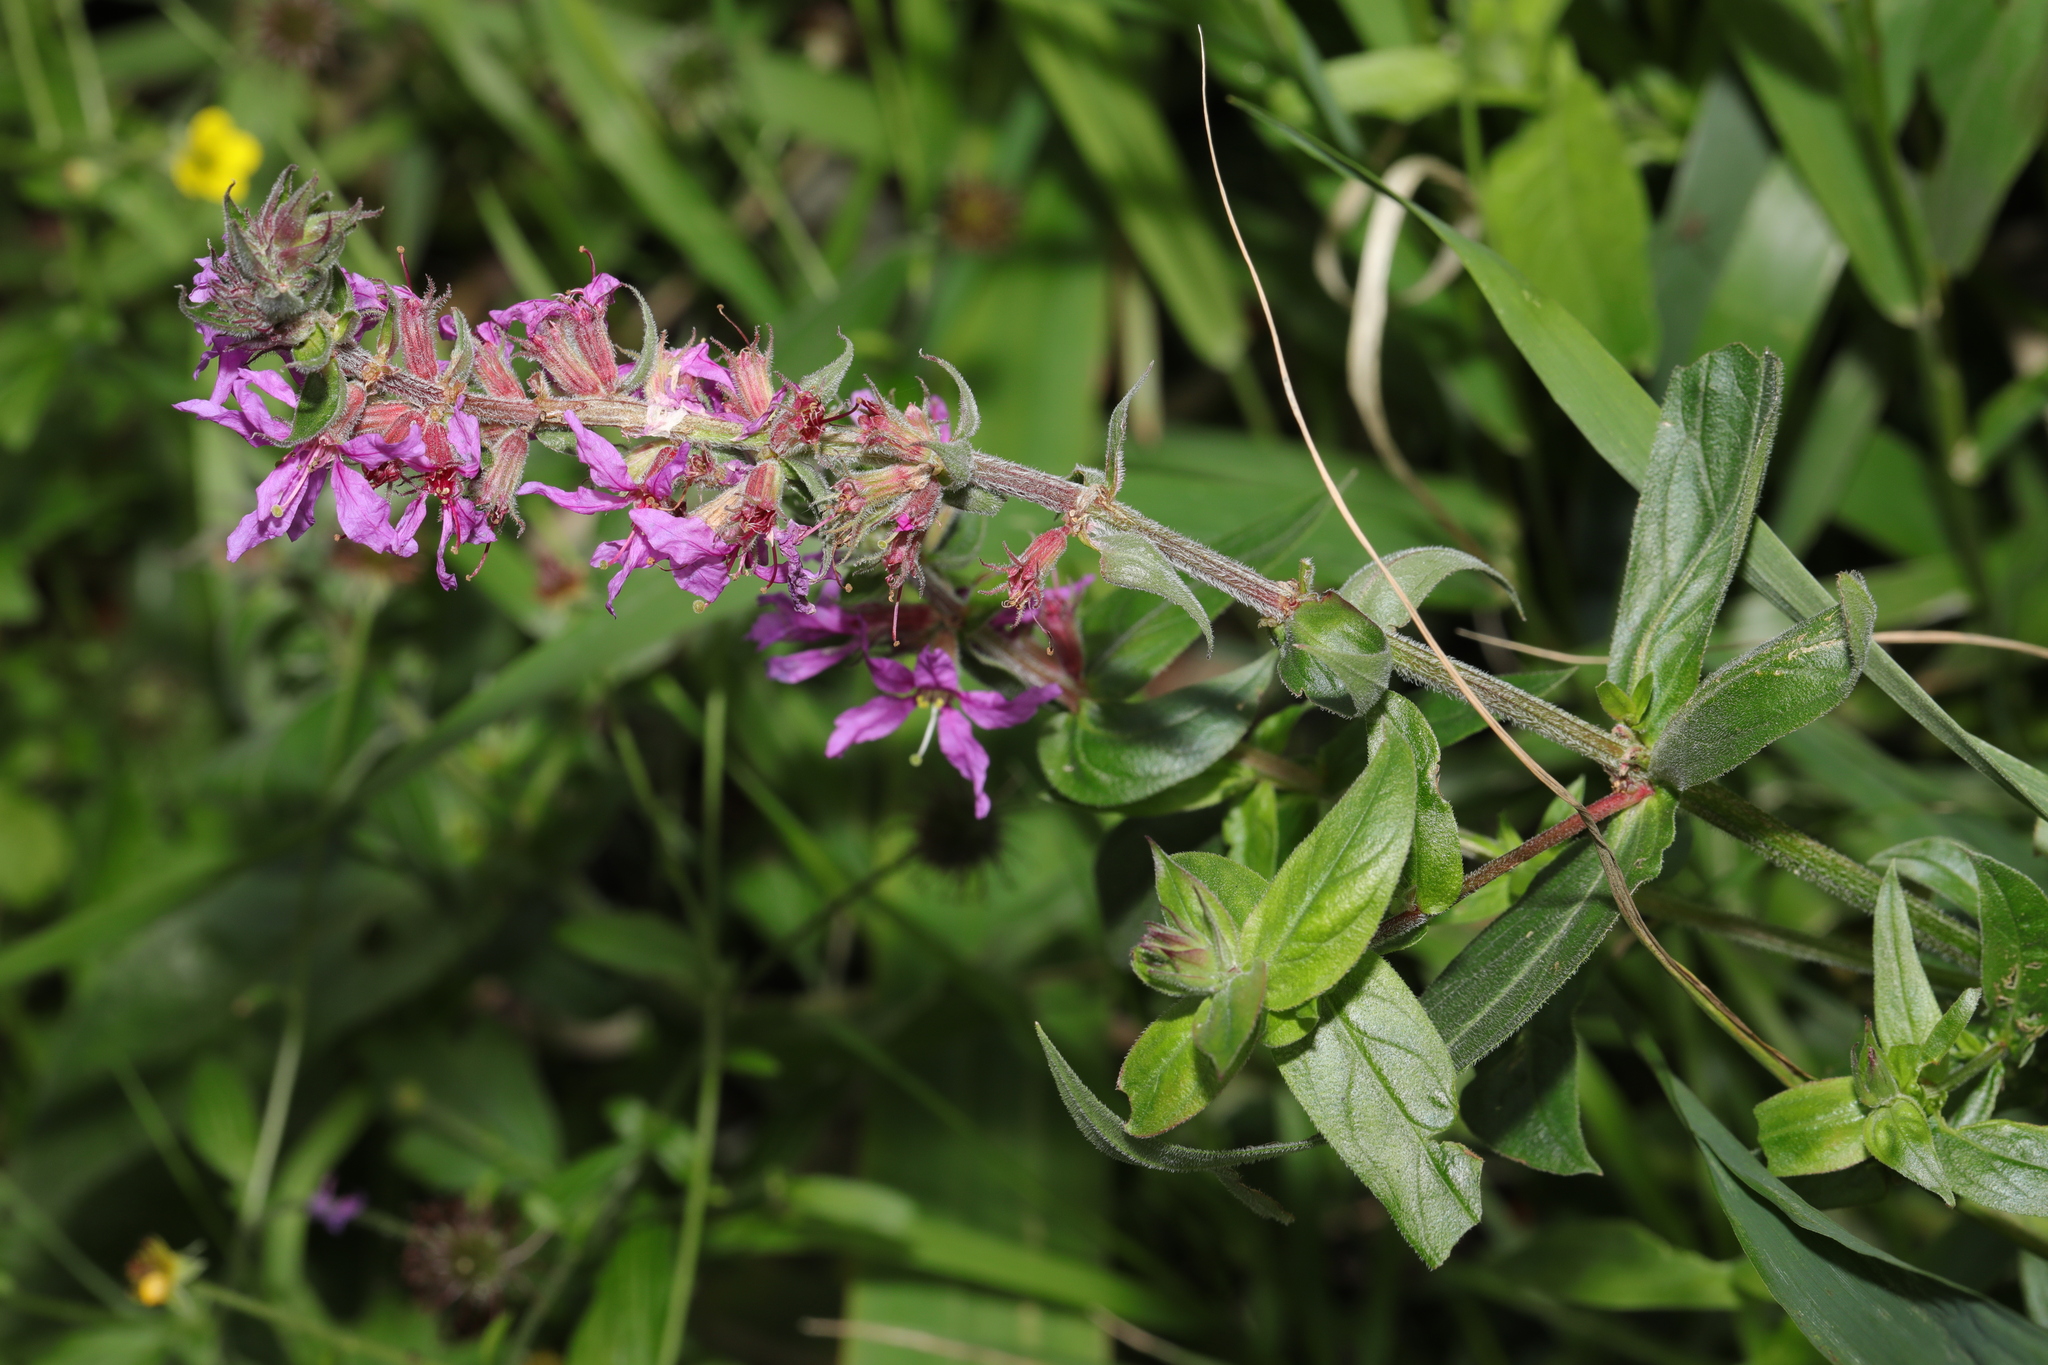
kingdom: Plantae
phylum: Tracheophyta
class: Magnoliopsida
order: Myrtales
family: Lythraceae
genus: Lythrum
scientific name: Lythrum salicaria
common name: Purple loosestrife
